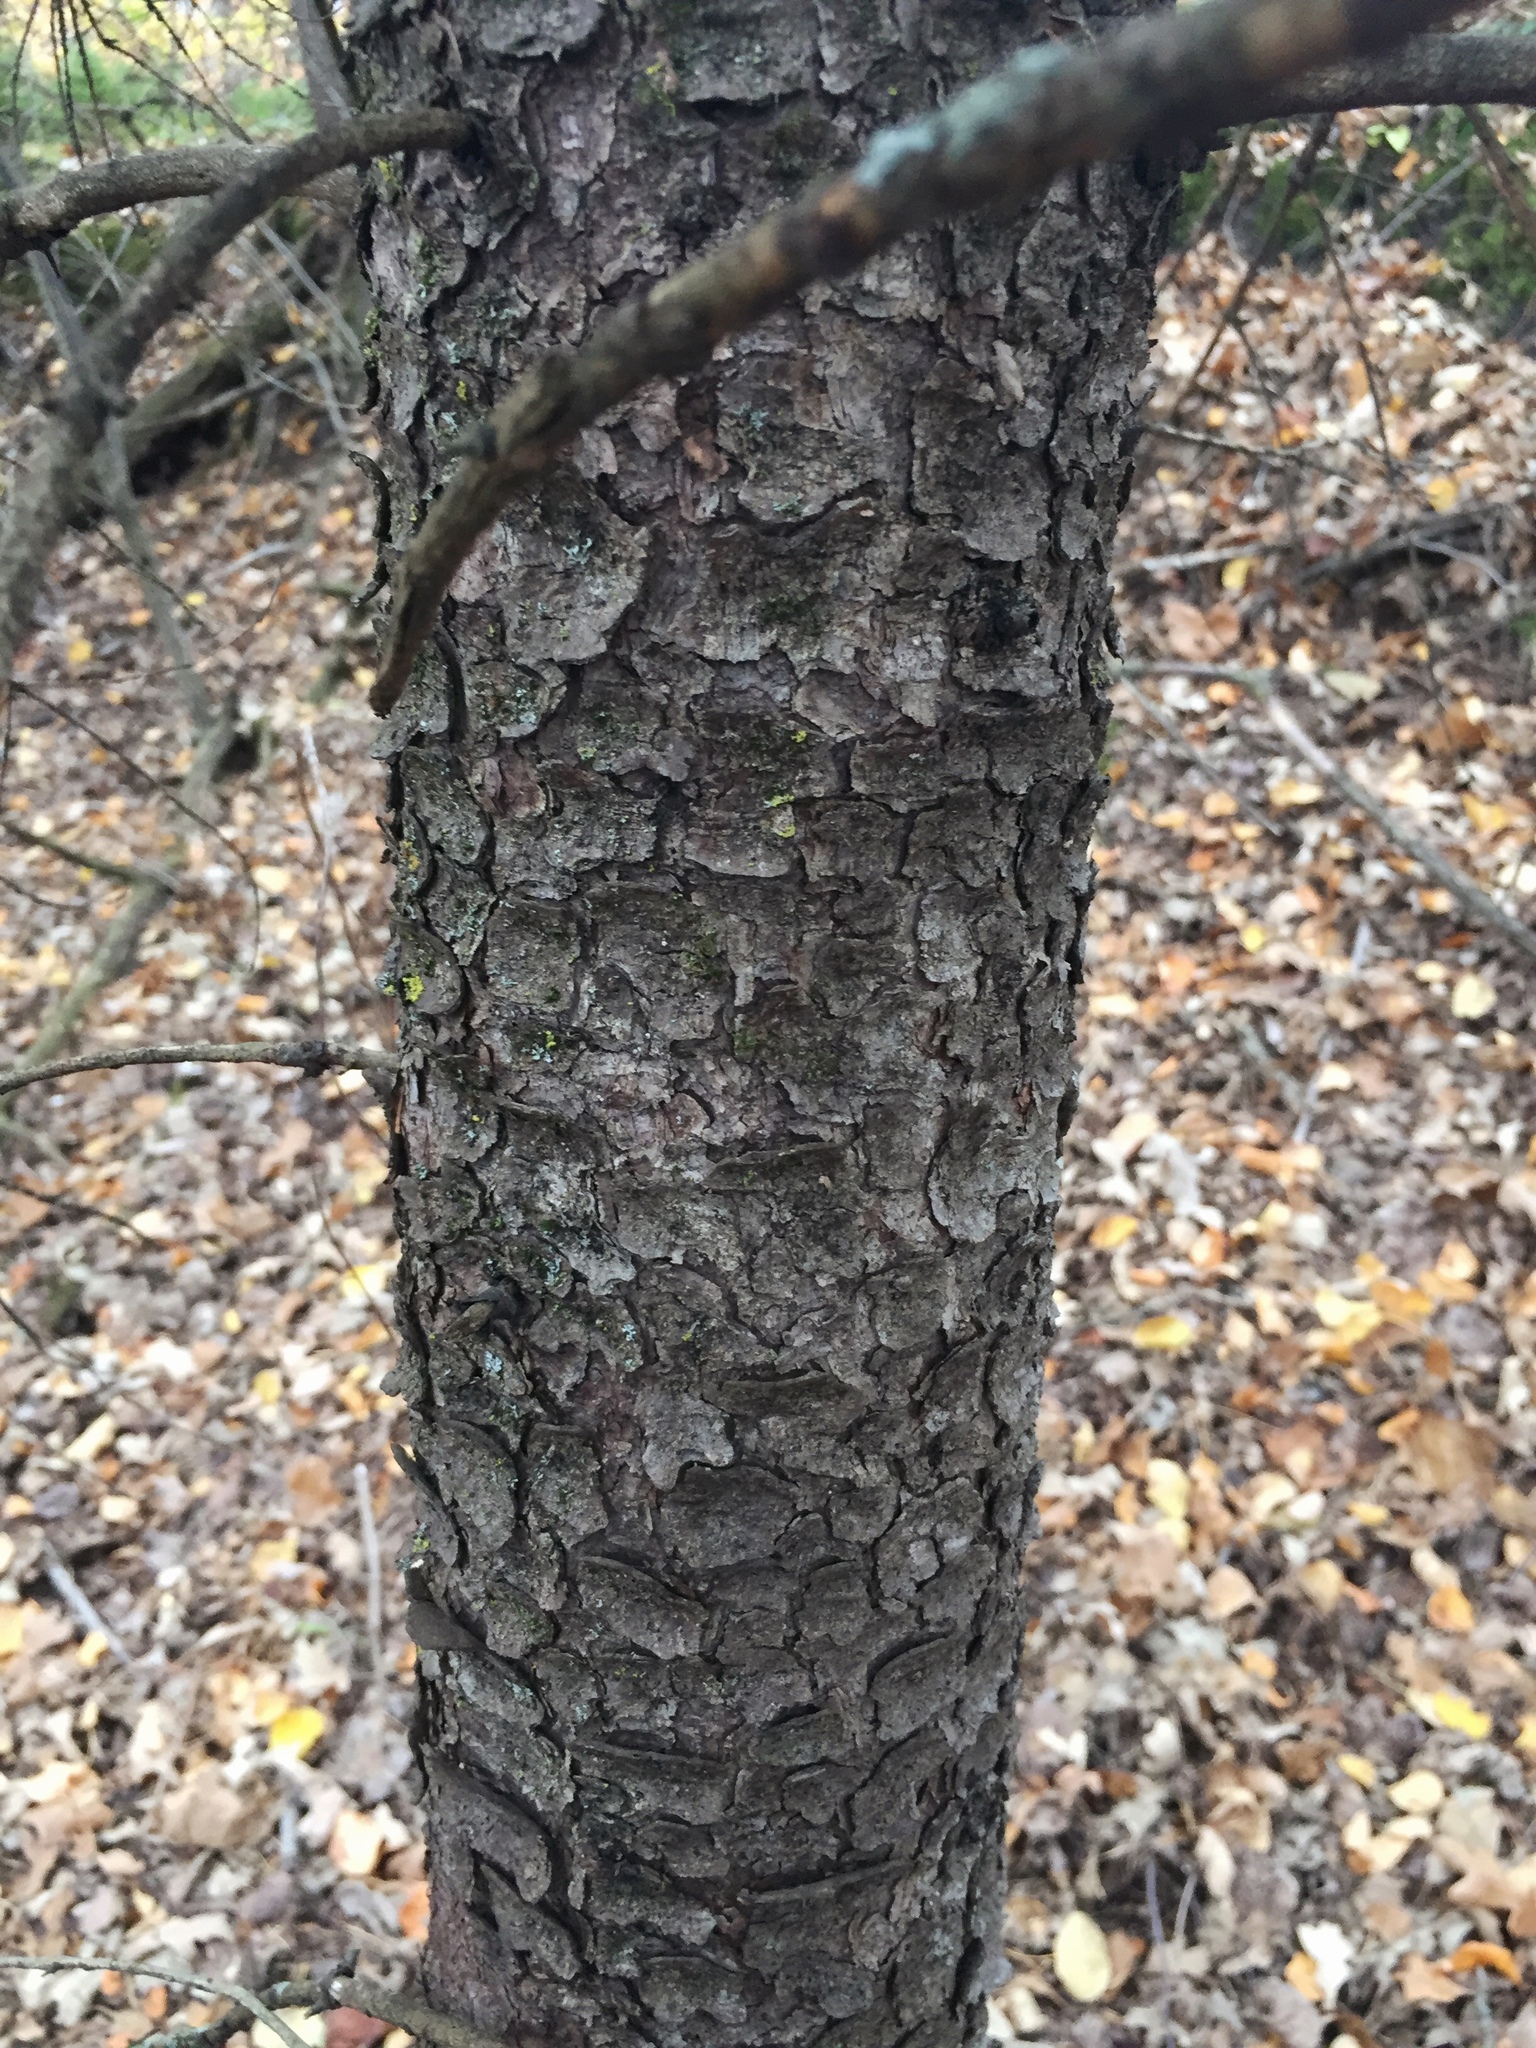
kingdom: Plantae
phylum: Tracheophyta
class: Pinopsida
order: Pinales
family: Pinaceae
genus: Picea
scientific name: Picea mariana
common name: Black spruce
